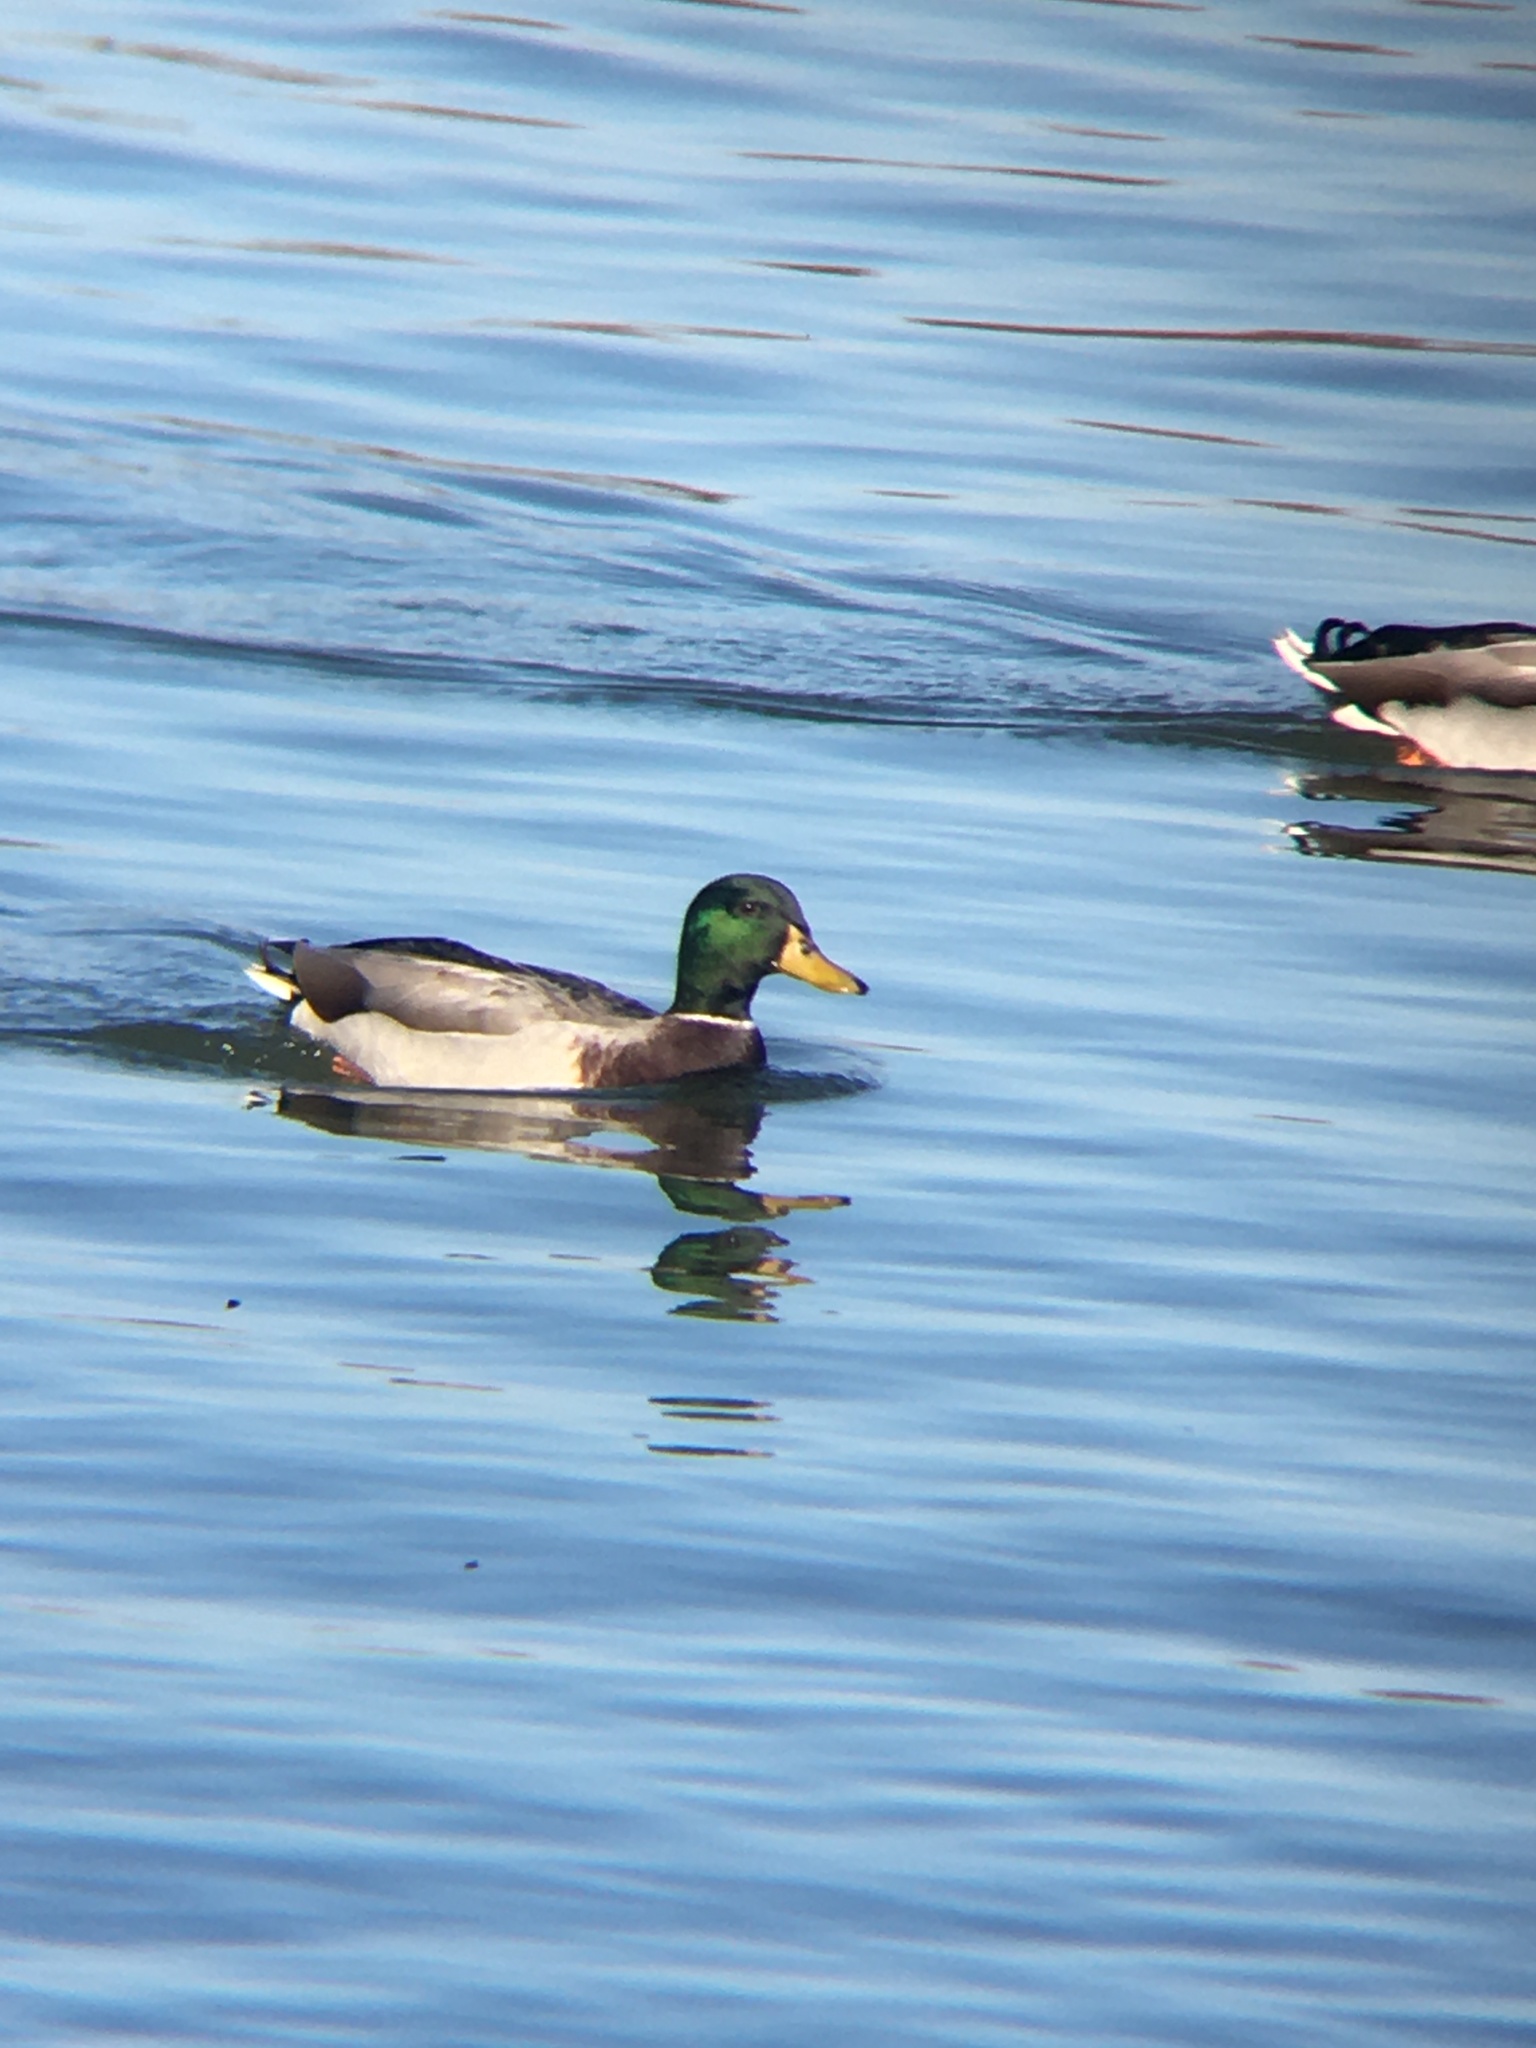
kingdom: Animalia
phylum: Chordata
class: Aves
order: Anseriformes
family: Anatidae
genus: Anas
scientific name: Anas platyrhynchos
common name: Mallard
